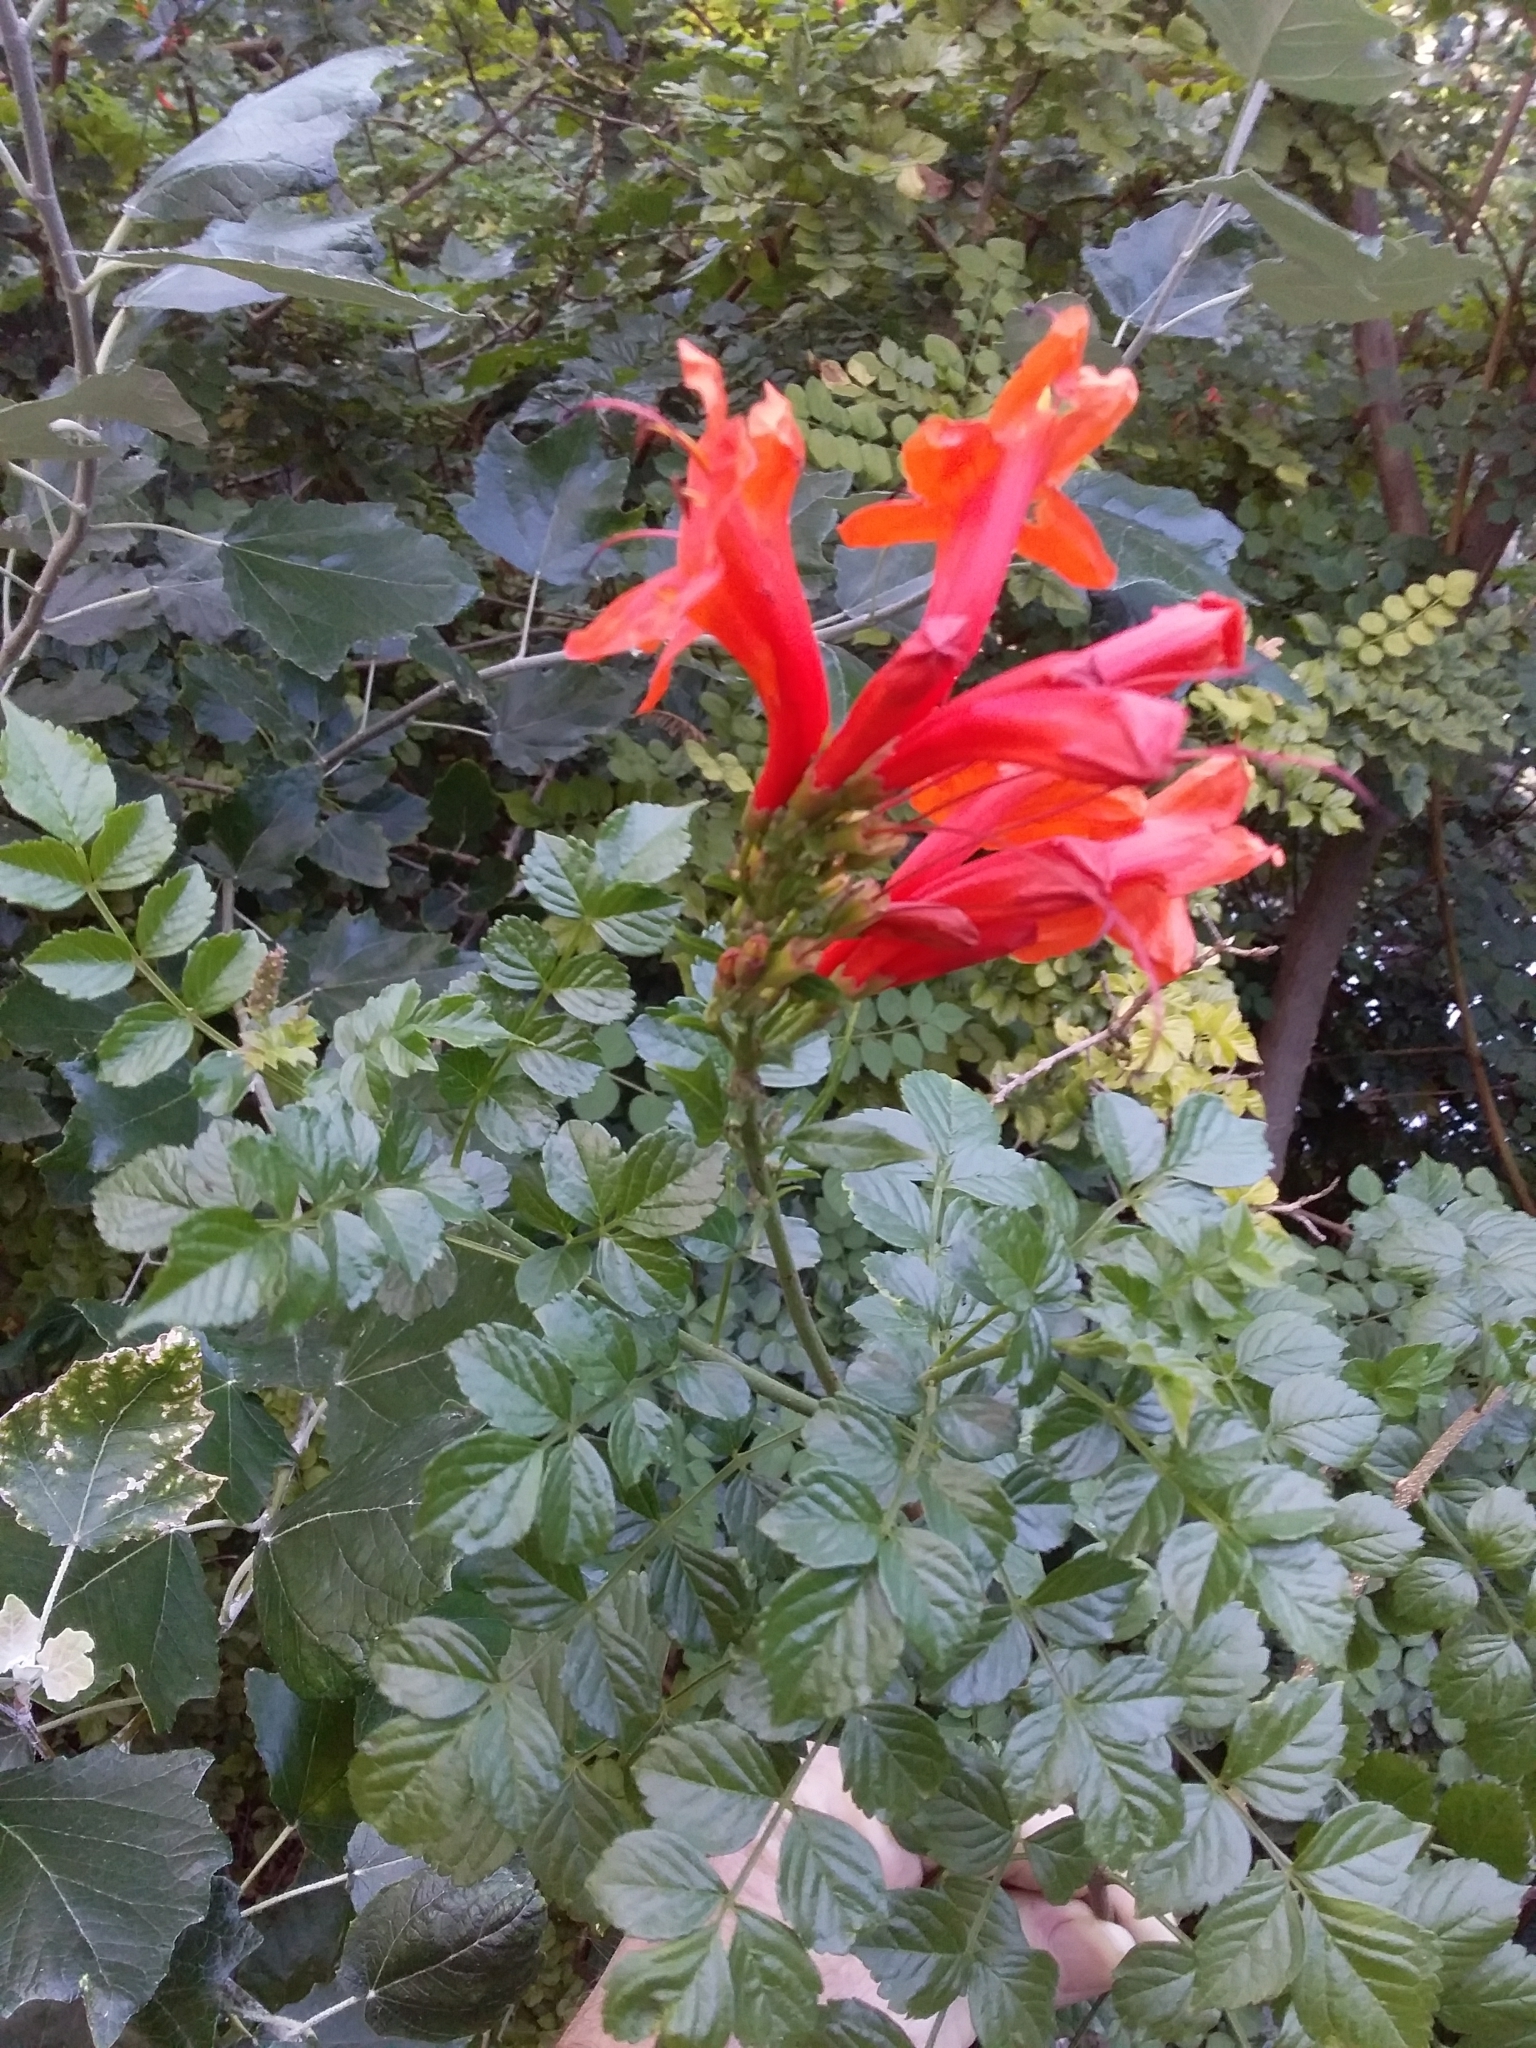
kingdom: Plantae
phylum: Tracheophyta
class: Magnoliopsida
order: Lamiales
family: Bignoniaceae
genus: Tecomaria
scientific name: Tecomaria capensis
